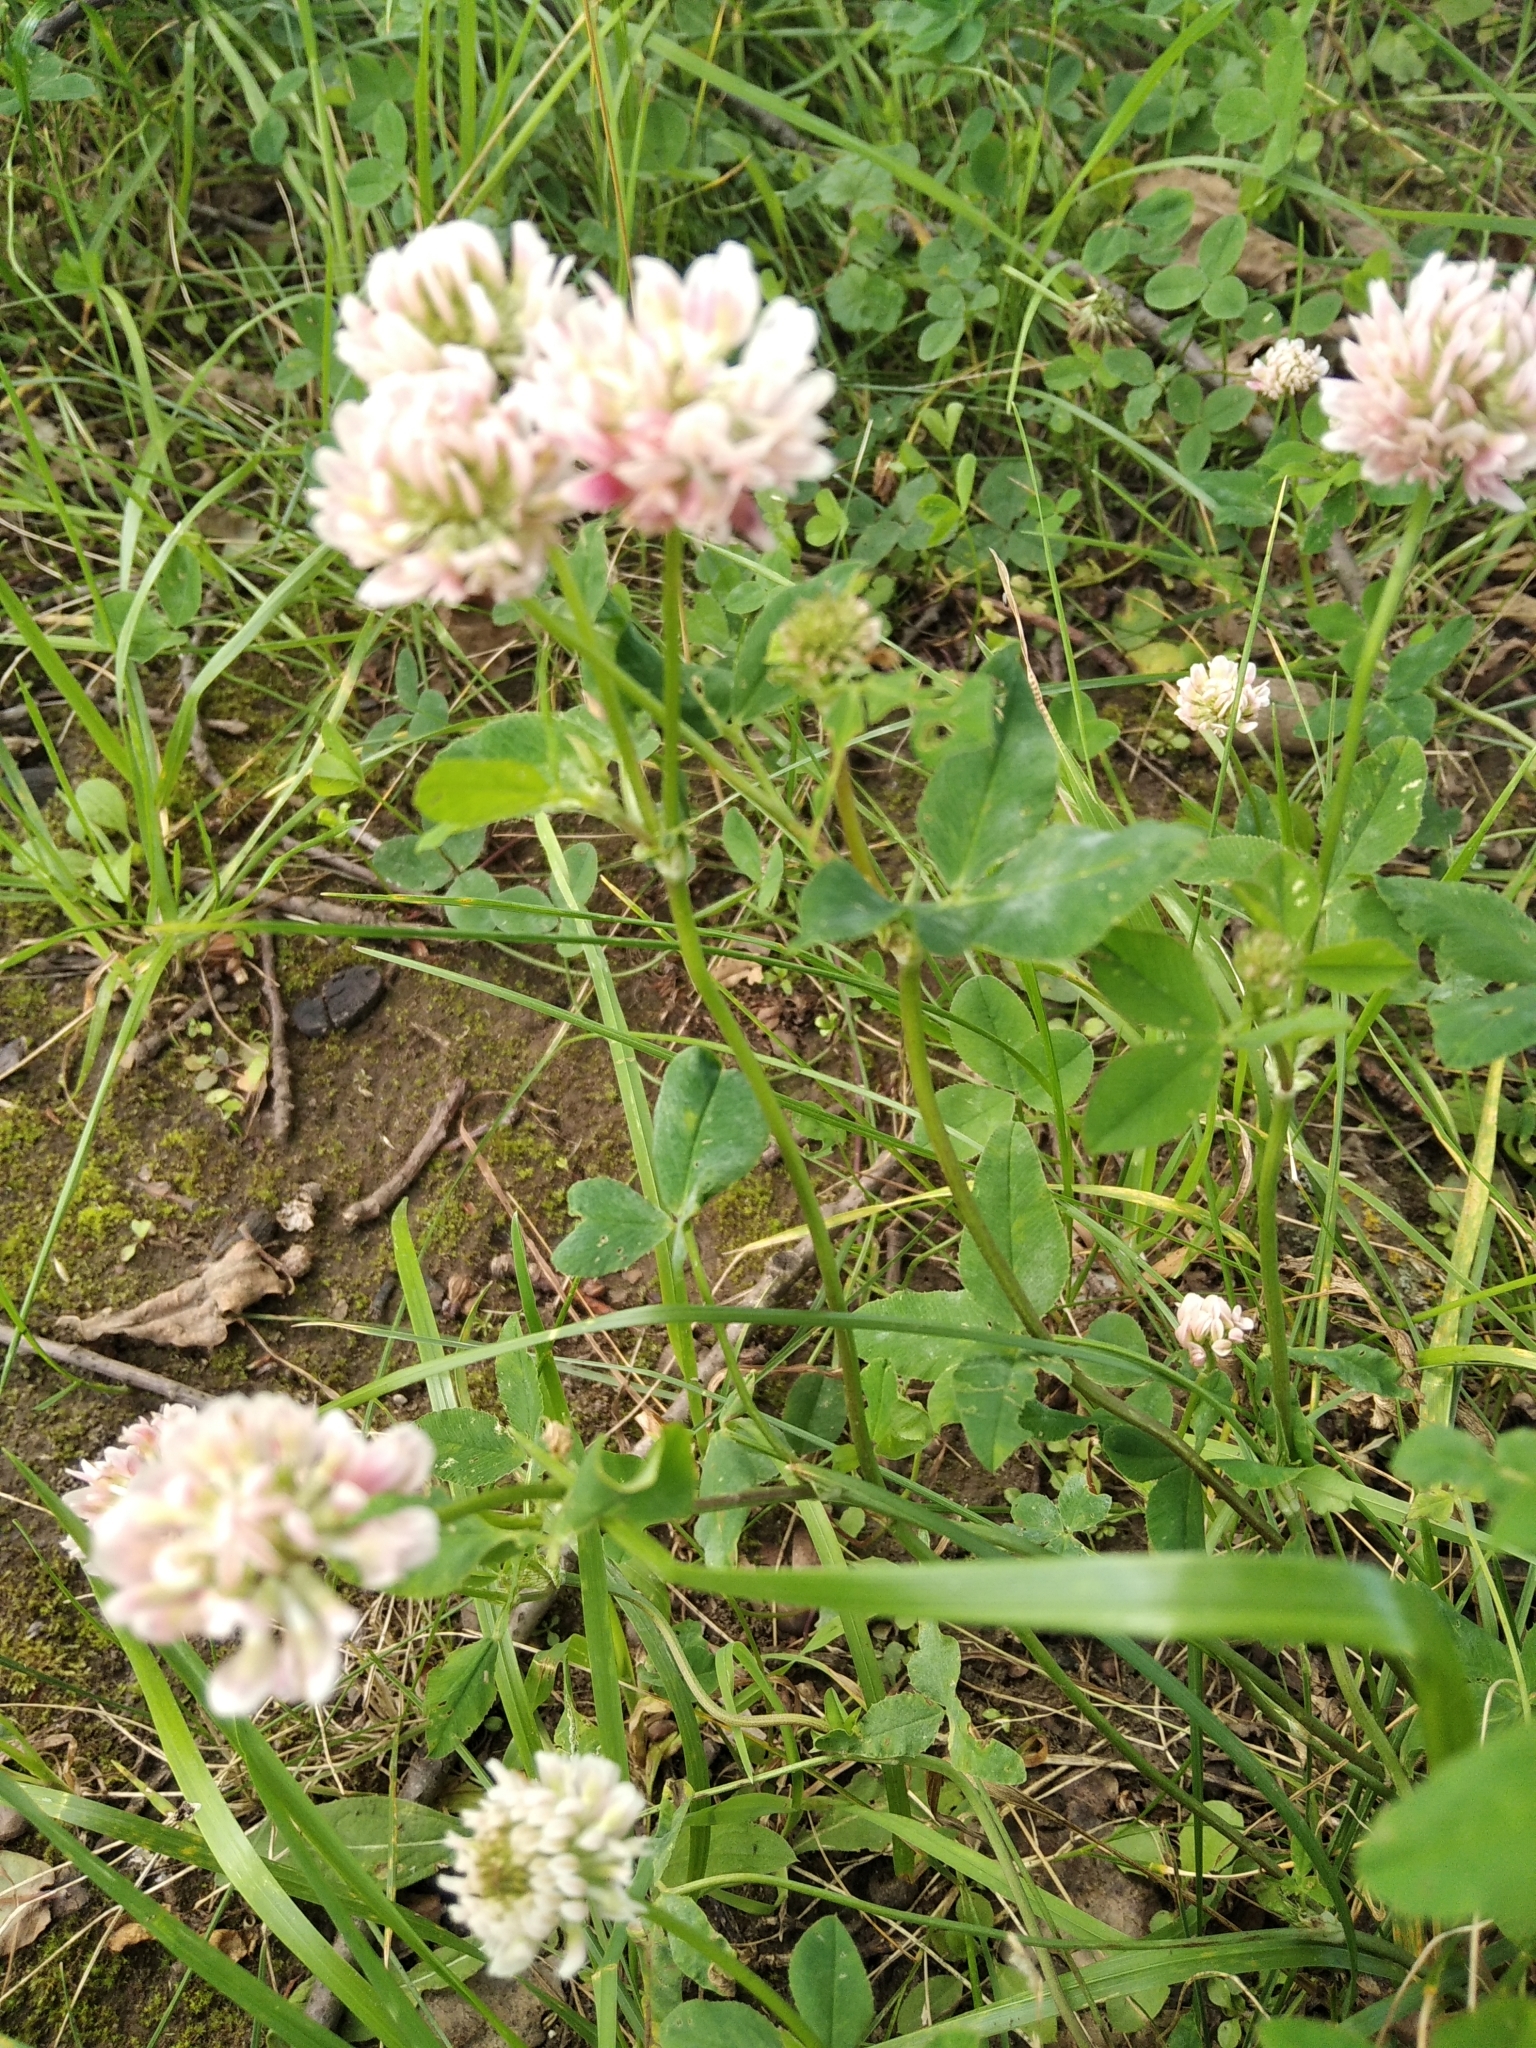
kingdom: Plantae
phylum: Tracheophyta
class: Magnoliopsida
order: Fabales
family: Fabaceae
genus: Trifolium
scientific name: Trifolium hybridum
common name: Alsike clover
